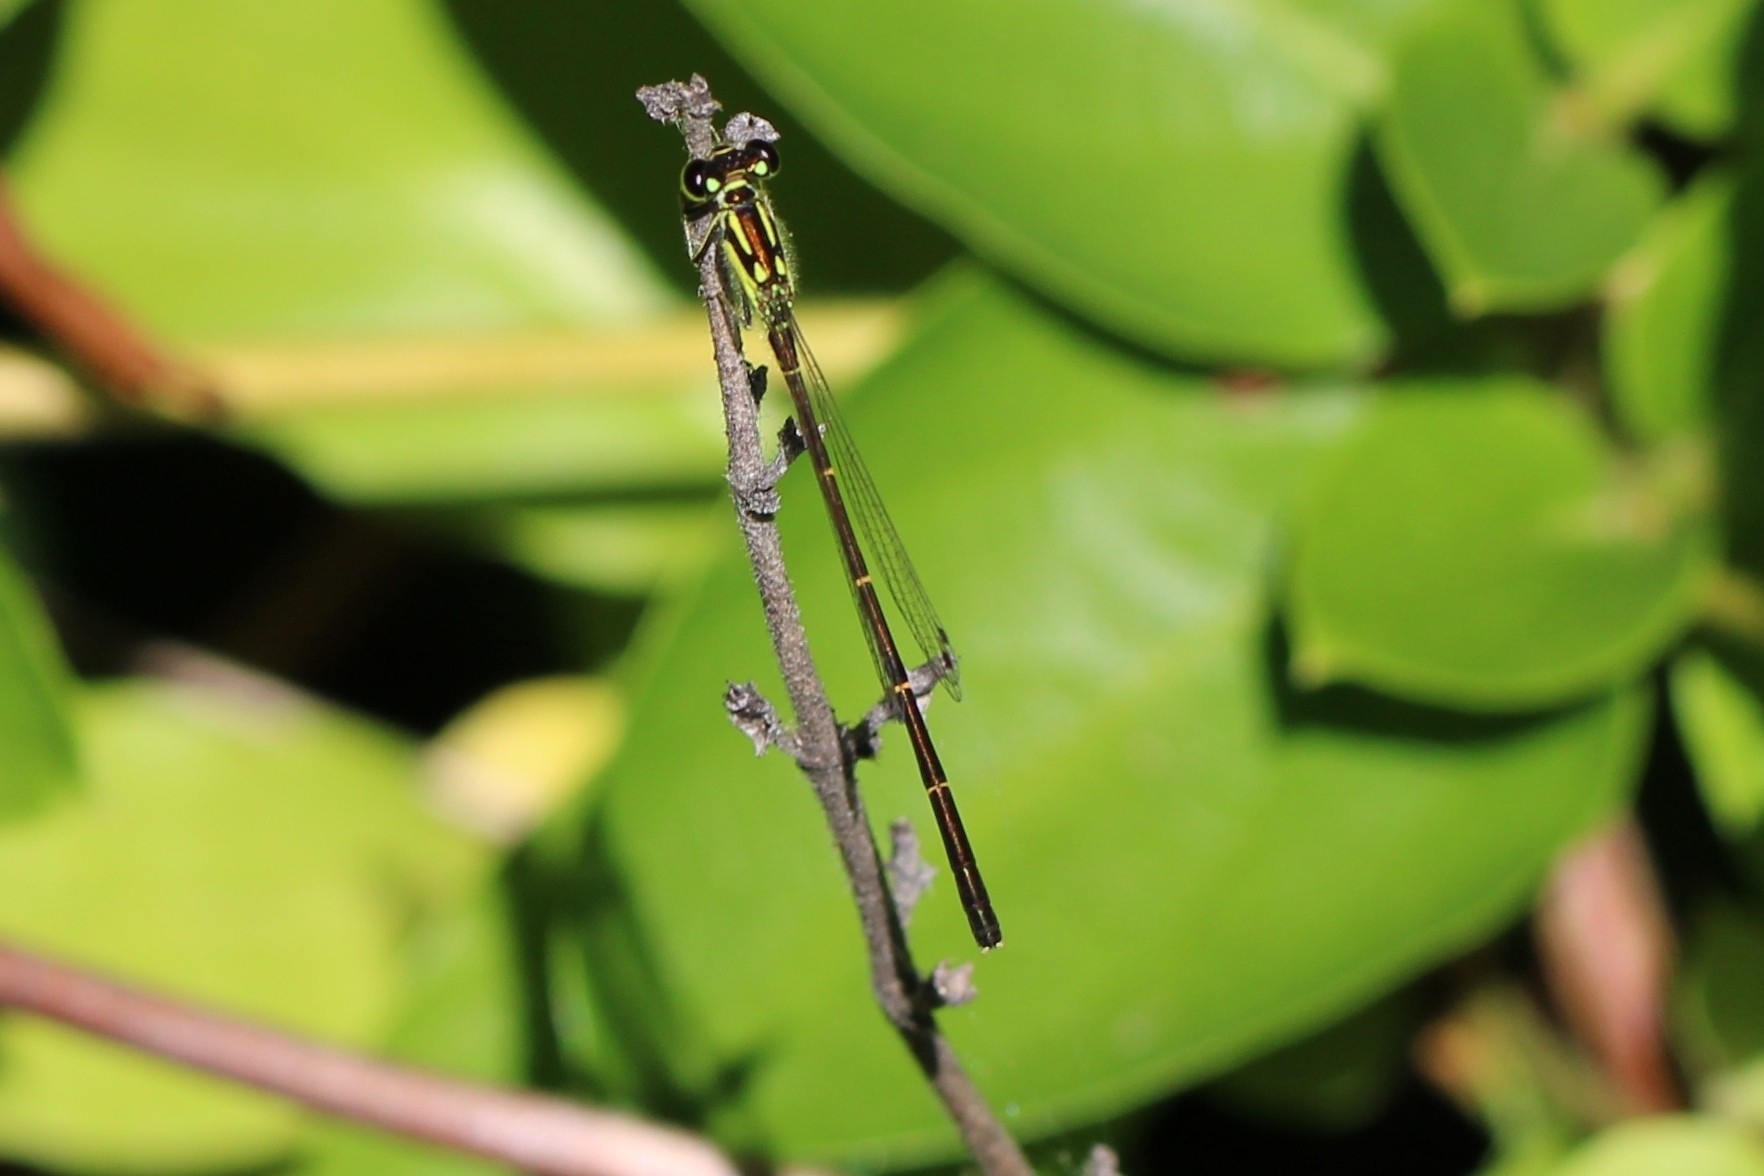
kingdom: Animalia
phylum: Arthropoda
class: Insecta
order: Odonata
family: Coenagrionidae
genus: Ischnura
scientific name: Ischnura posita
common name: Fragile forktail
